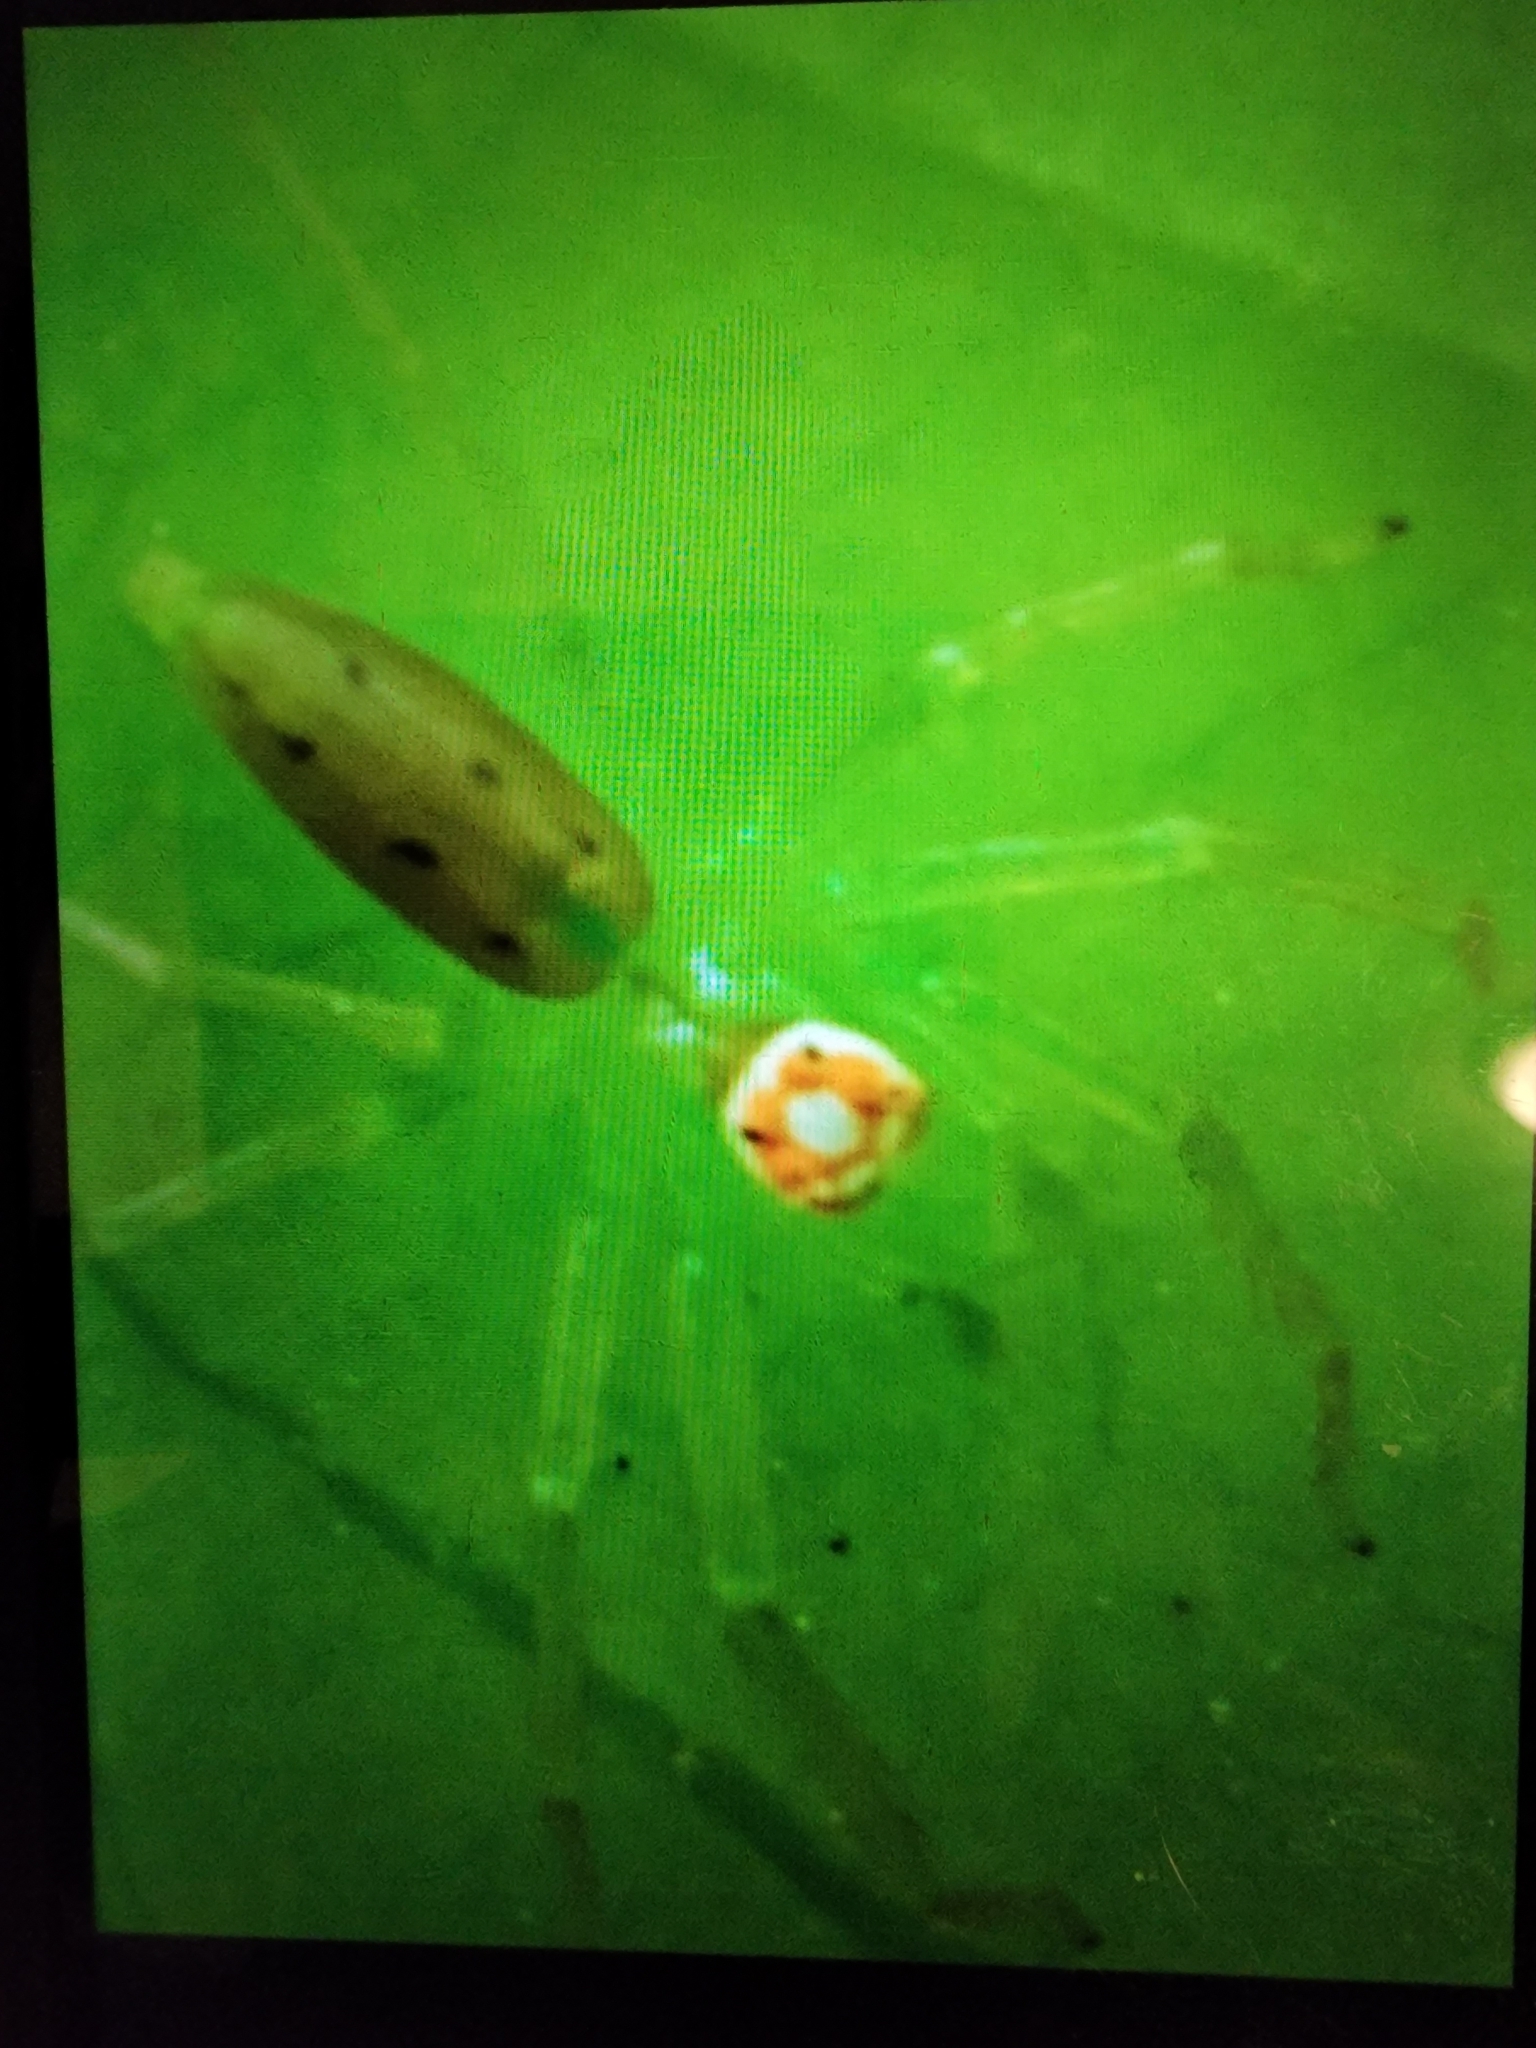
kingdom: Animalia
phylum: Arthropoda
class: Arachnida
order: Araneae
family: Salticidae
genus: Lyssomanes
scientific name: Lyssomanes viridis
